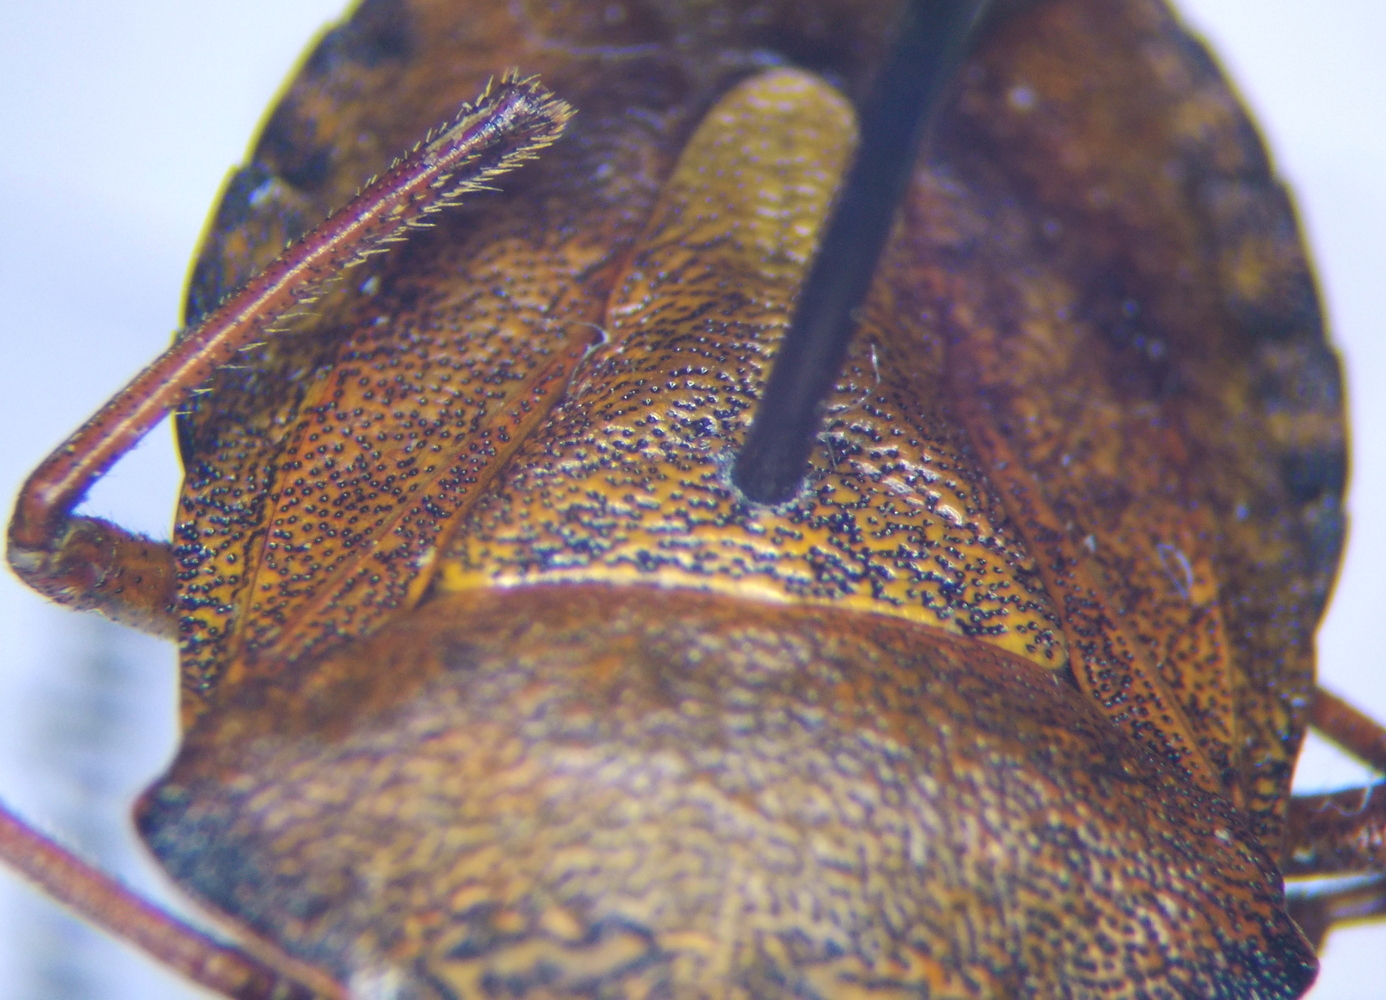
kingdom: Animalia
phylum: Arthropoda
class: Insecta
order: Hemiptera
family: Pentatomidae
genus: Carpocoris
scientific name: Carpocoris melanocerus
